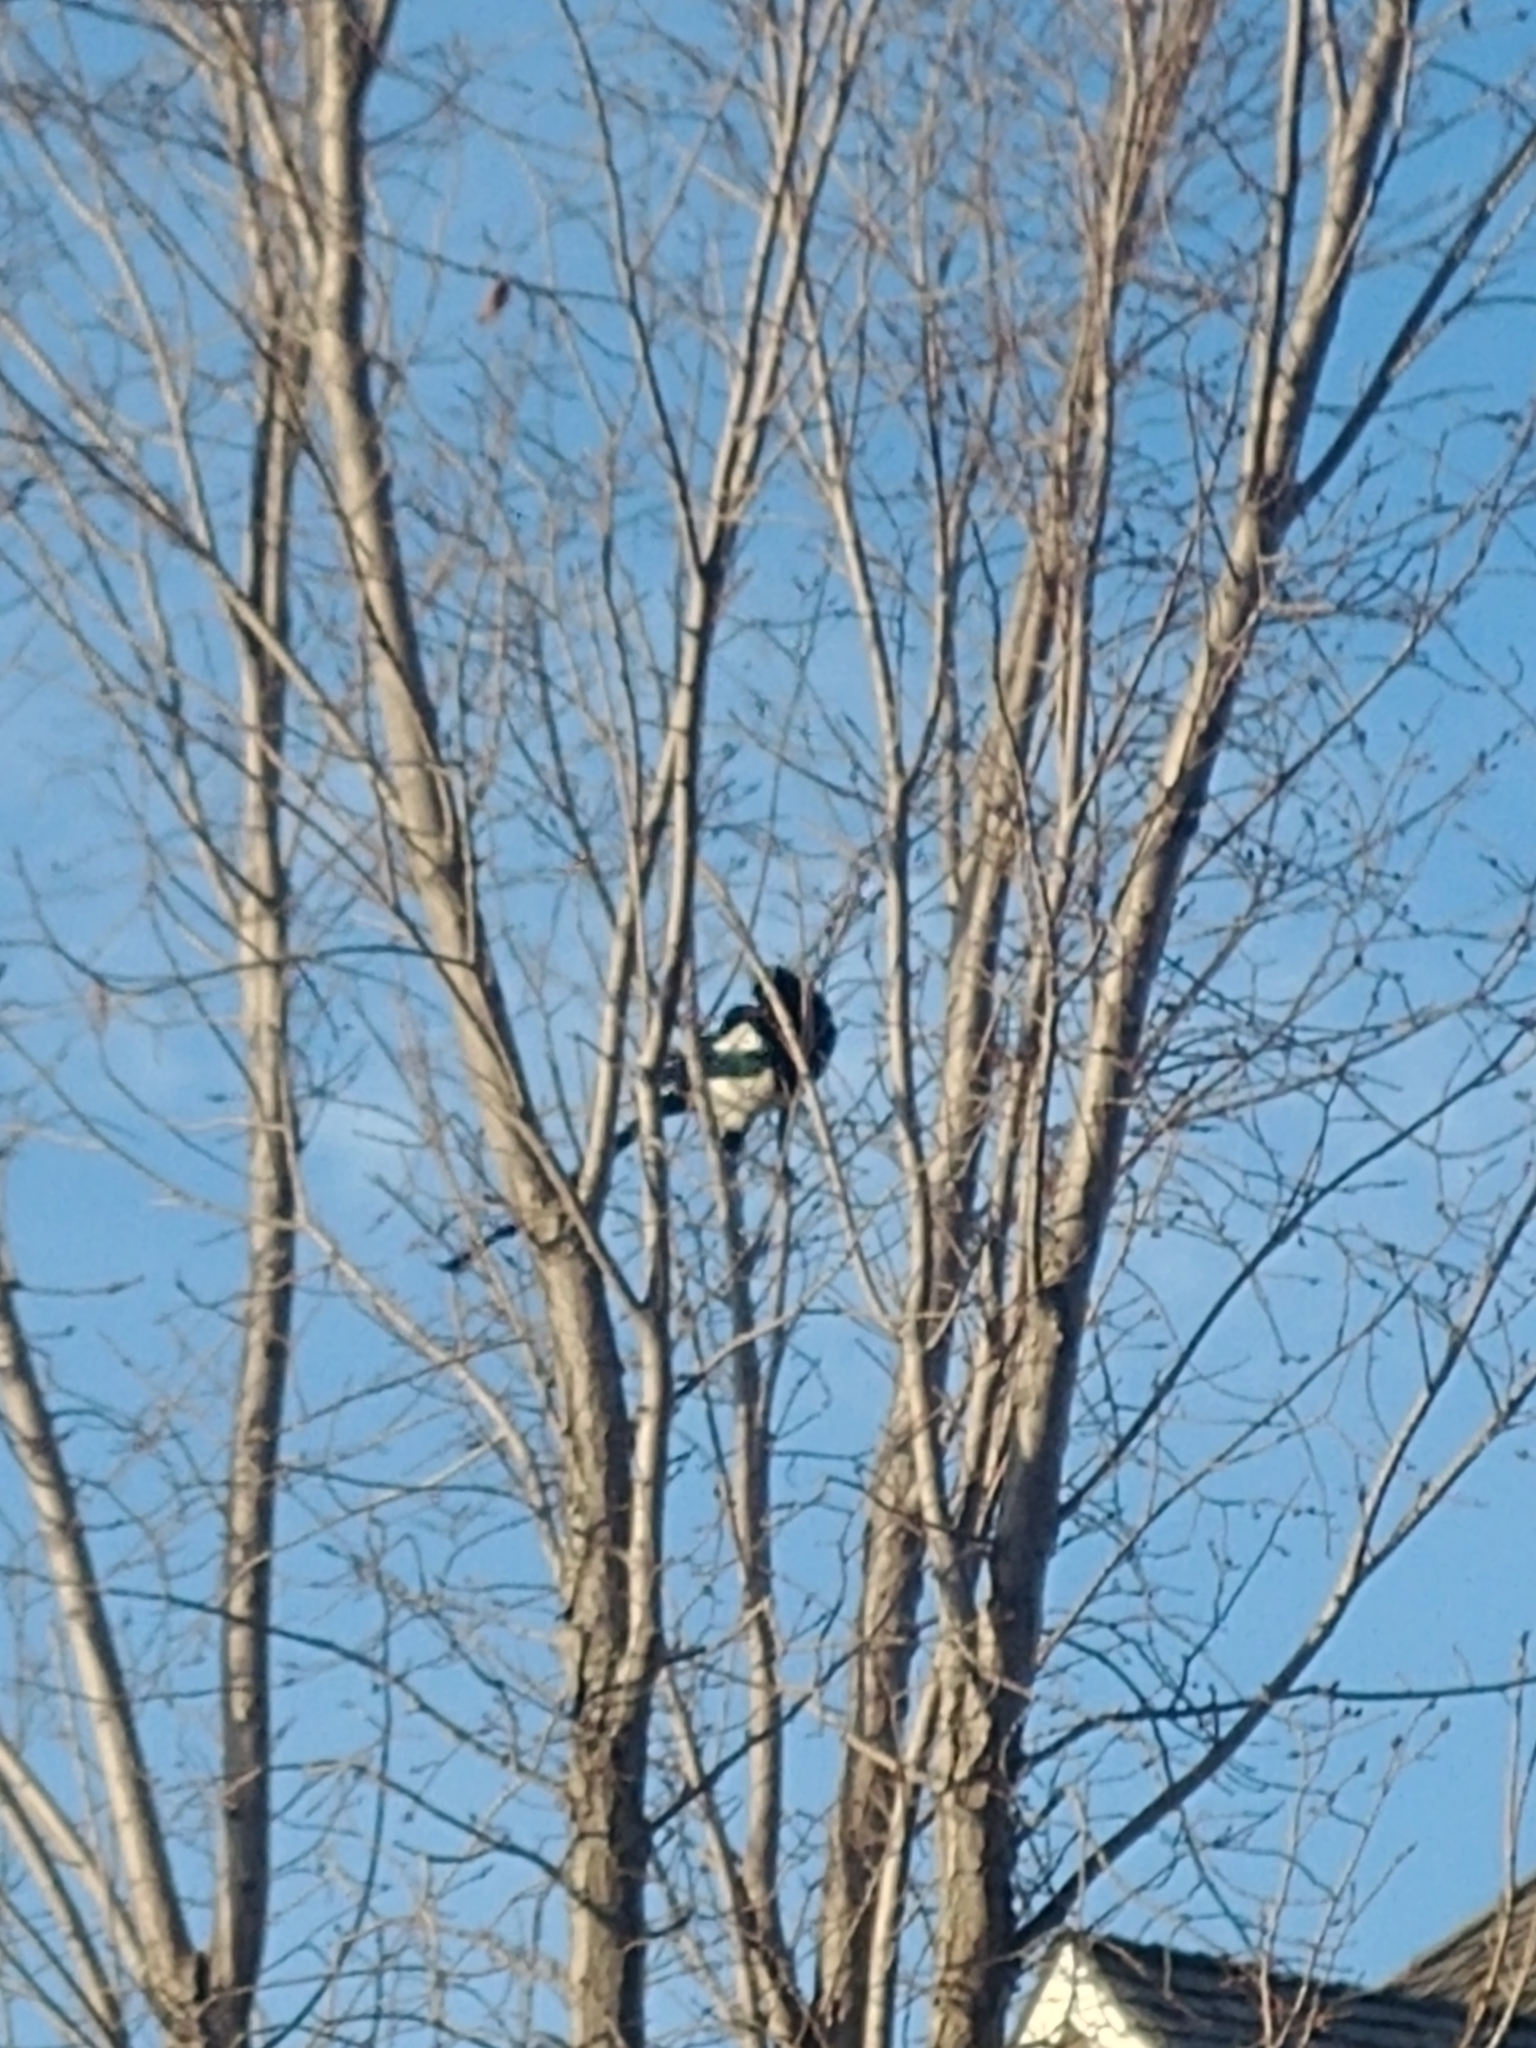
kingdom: Animalia
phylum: Chordata
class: Aves
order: Passeriformes
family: Corvidae
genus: Pica
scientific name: Pica hudsonia
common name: Black-billed magpie
